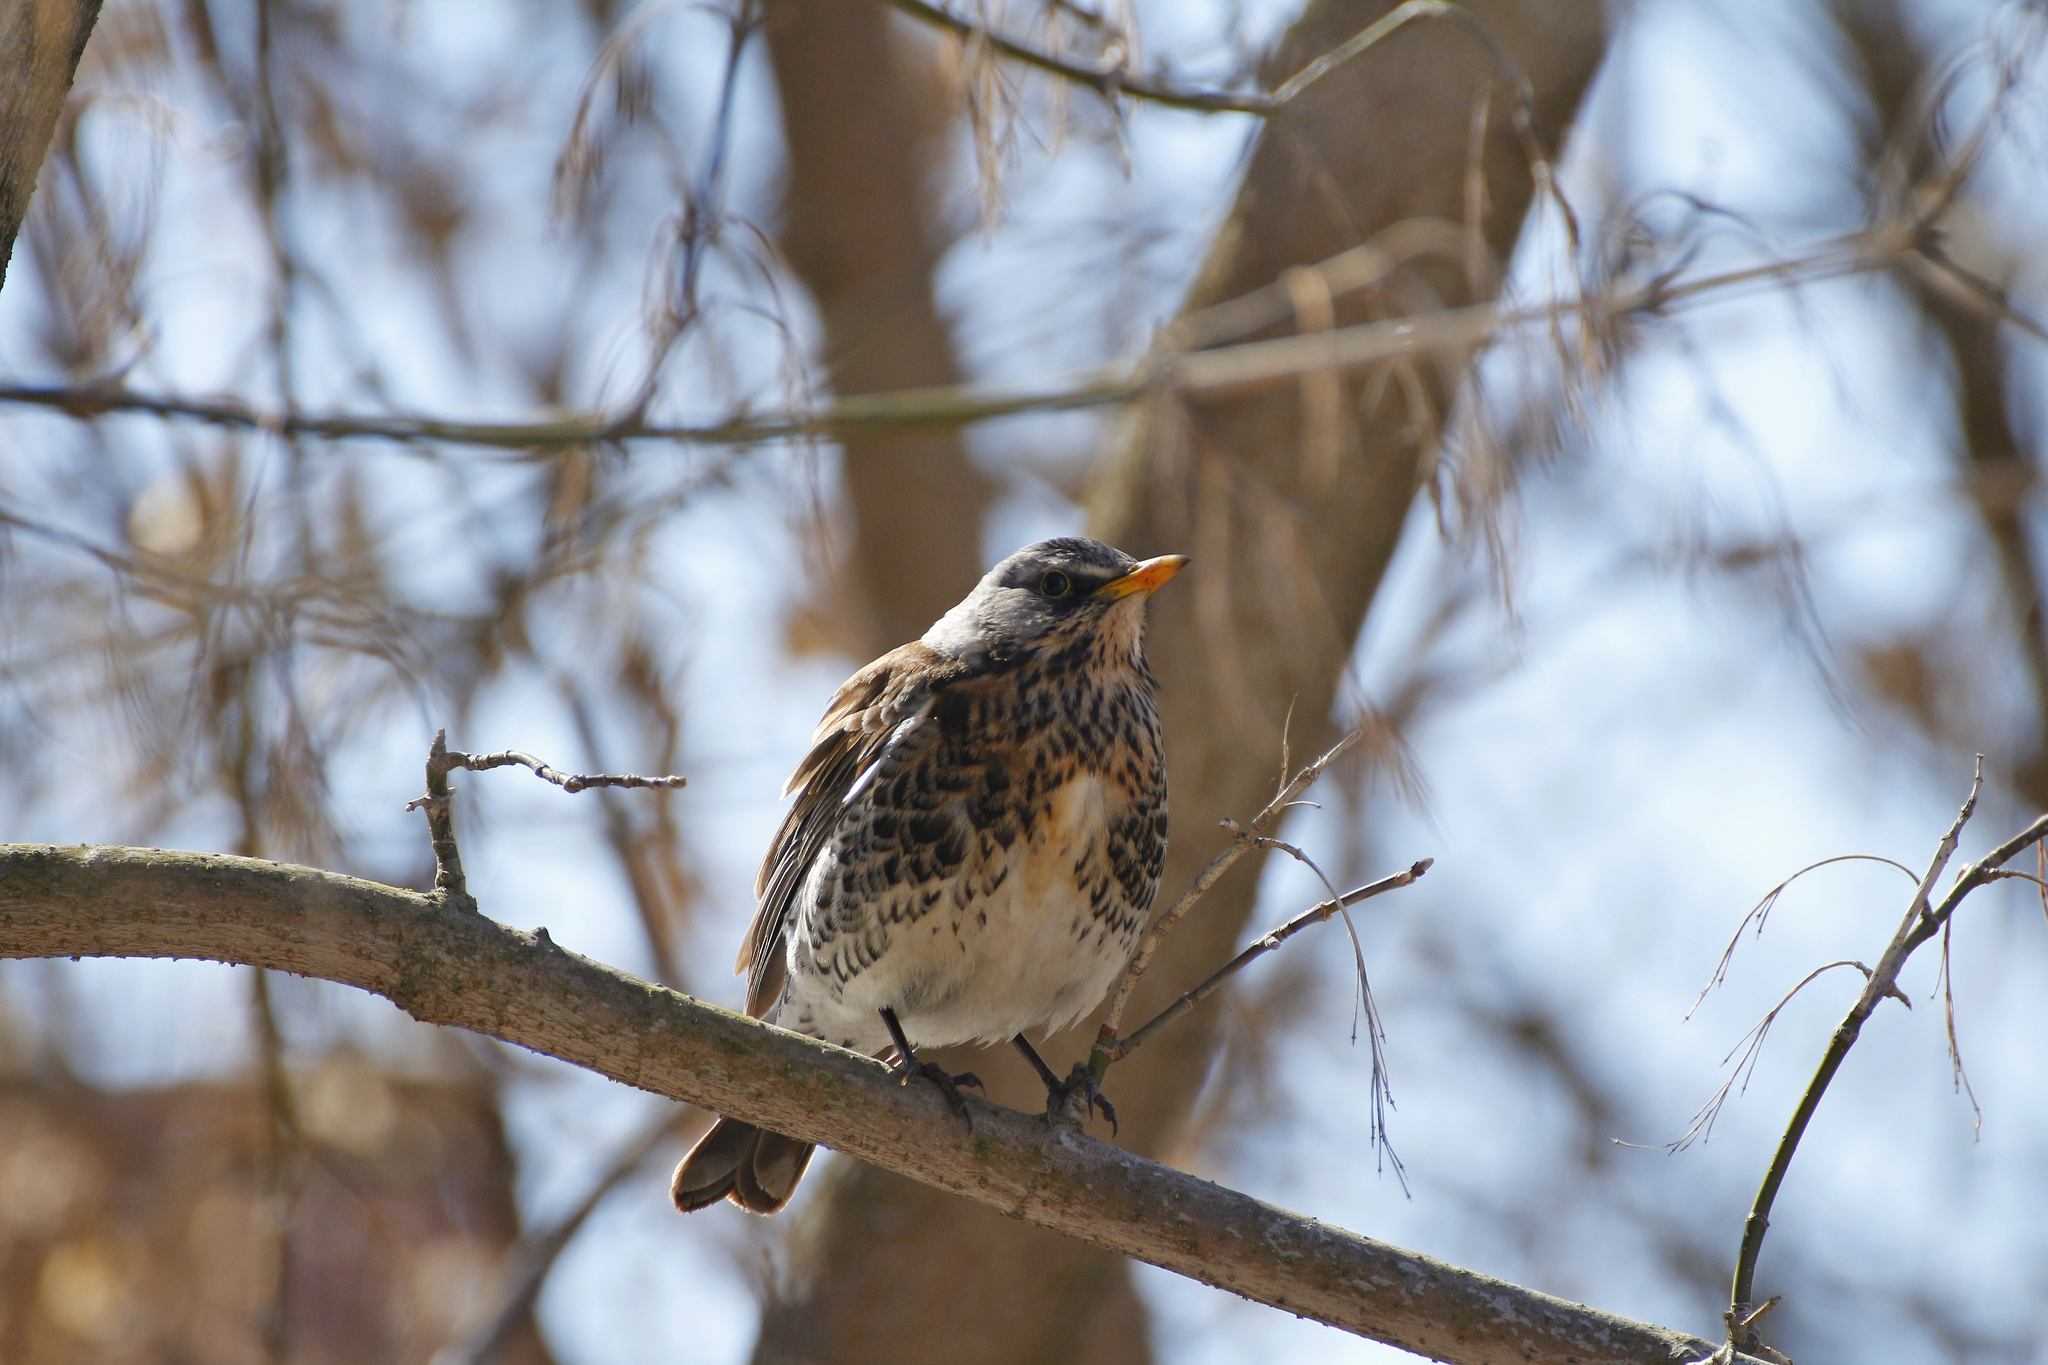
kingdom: Animalia
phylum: Chordata
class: Aves
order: Passeriformes
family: Turdidae
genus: Turdus
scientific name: Turdus pilaris
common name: Fieldfare
